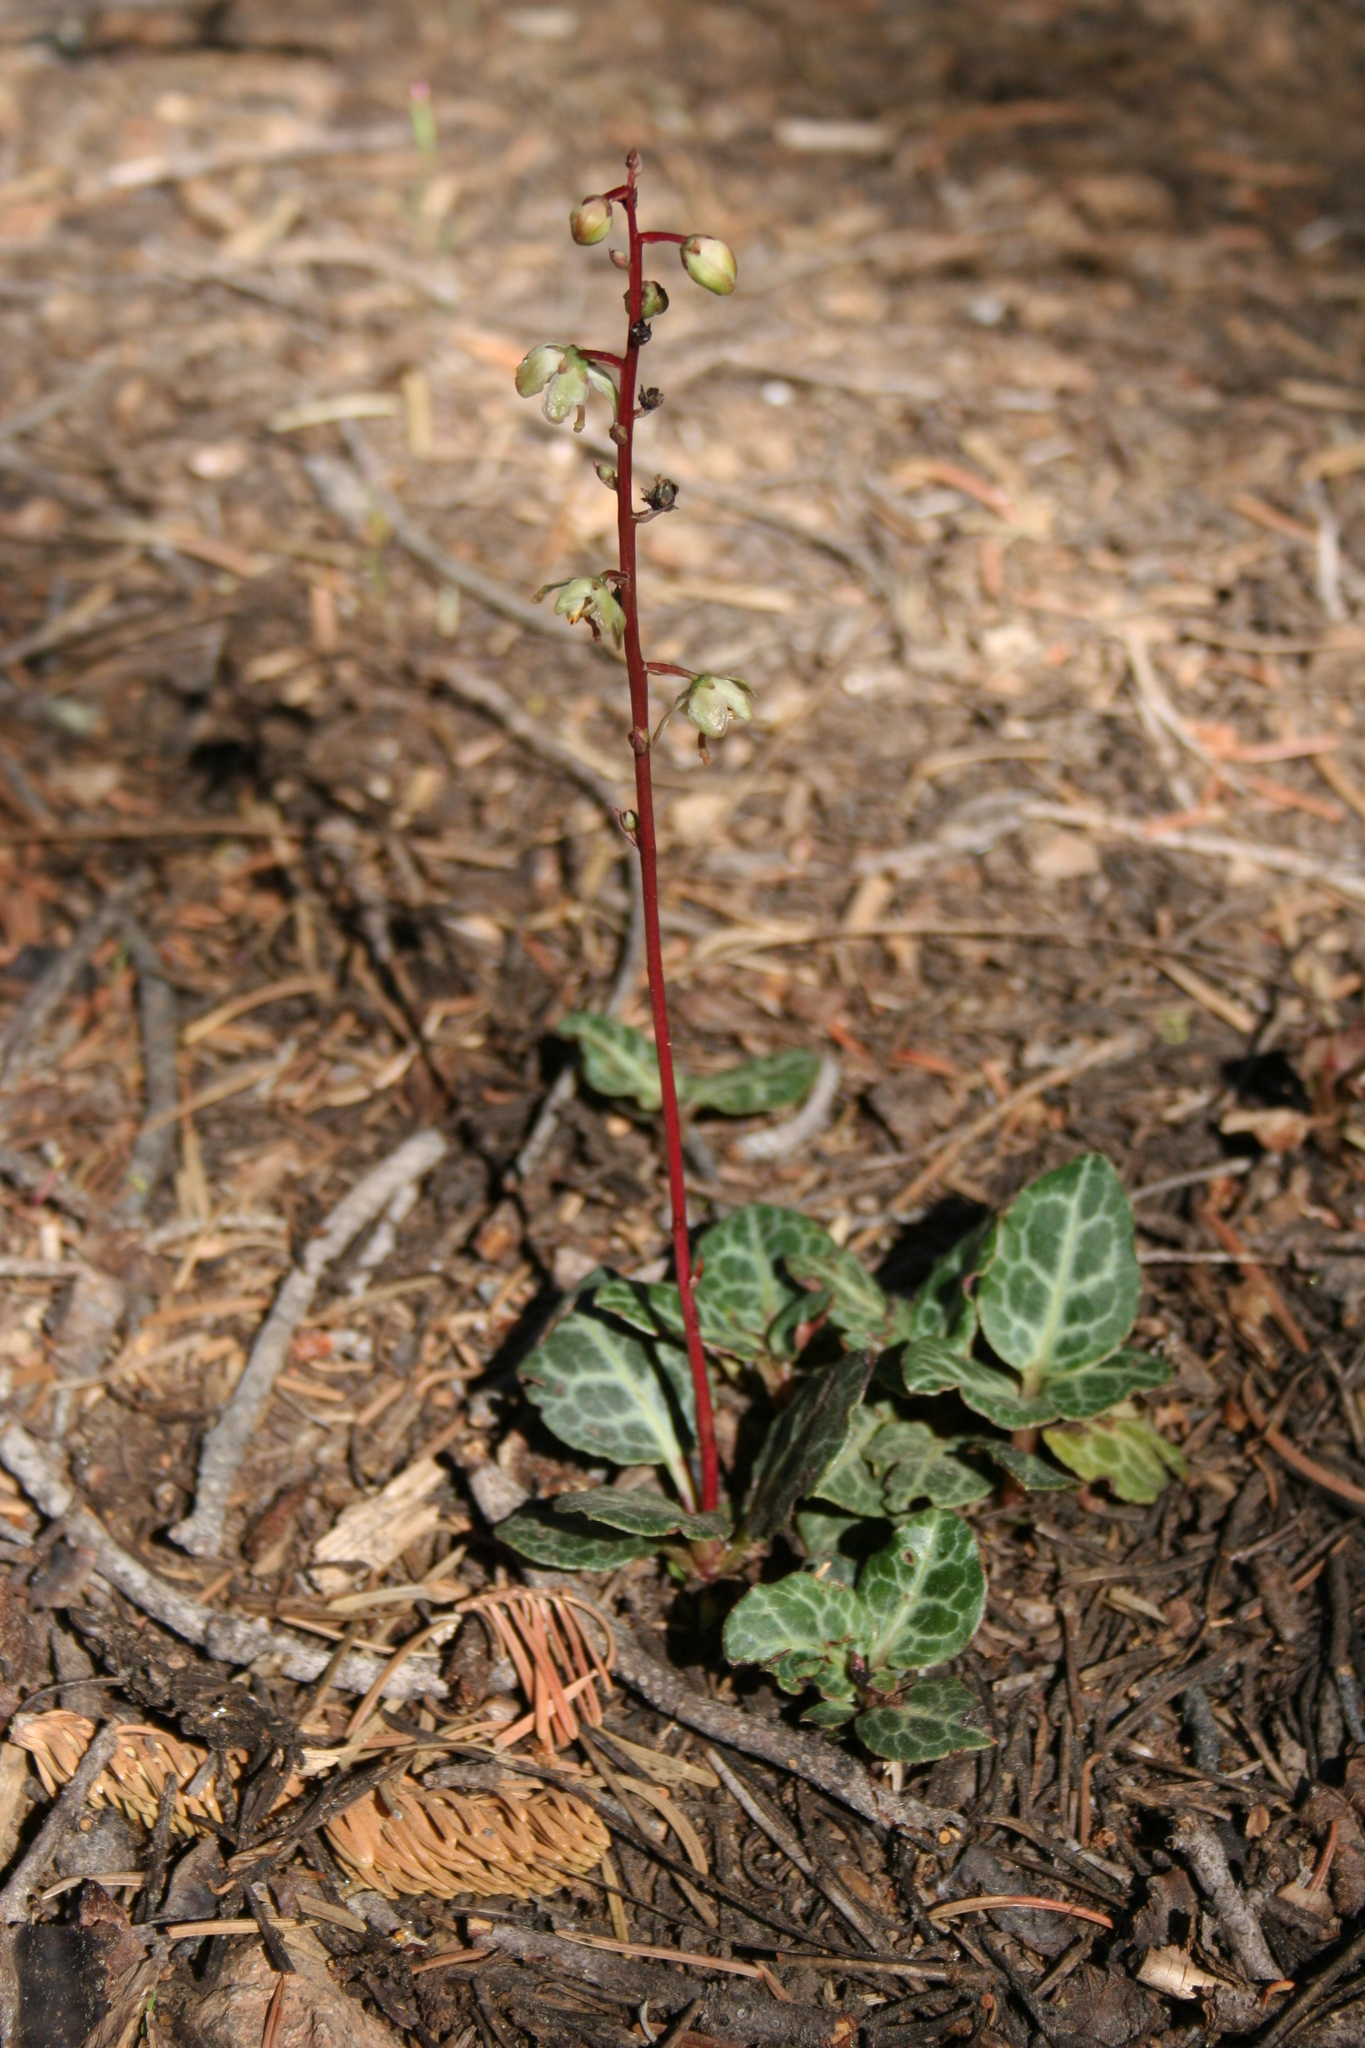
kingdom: Plantae
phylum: Tracheophyta
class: Magnoliopsida
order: Ericales
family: Ericaceae
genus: Pyrola
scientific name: Pyrola picta
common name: White-vein wintergreen
